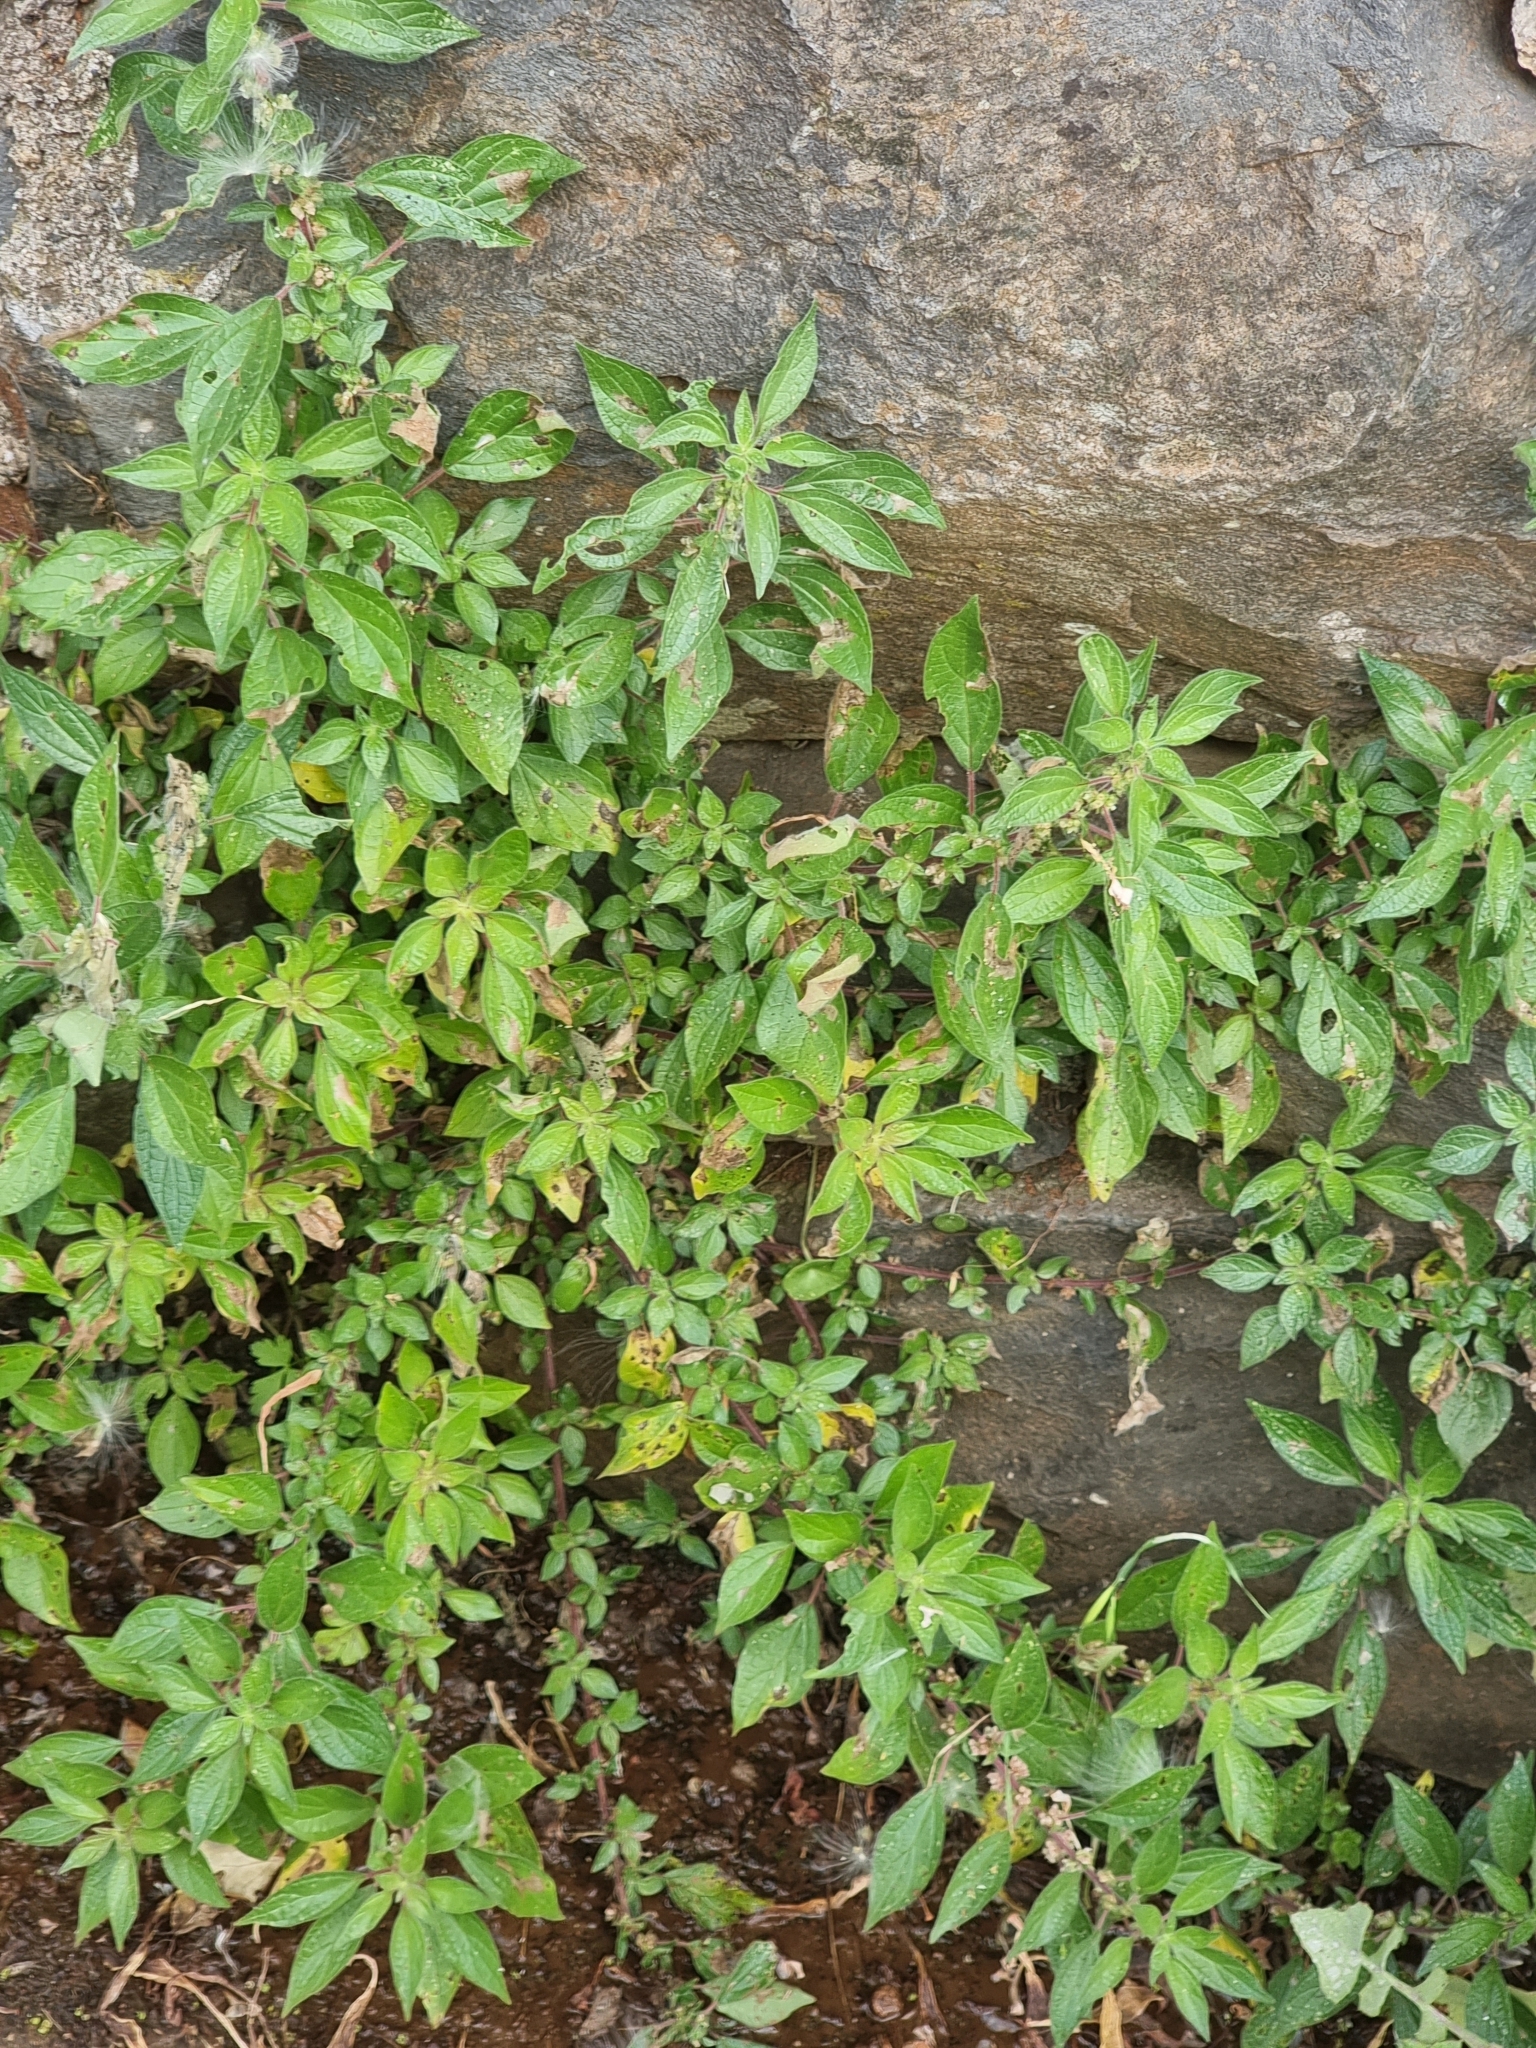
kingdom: Plantae
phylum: Tracheophyta
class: Magnoliopsida
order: Rosales
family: Urticaceae
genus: Parietaria
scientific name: Parietaria judaica
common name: Pellitory-of-the-wall
